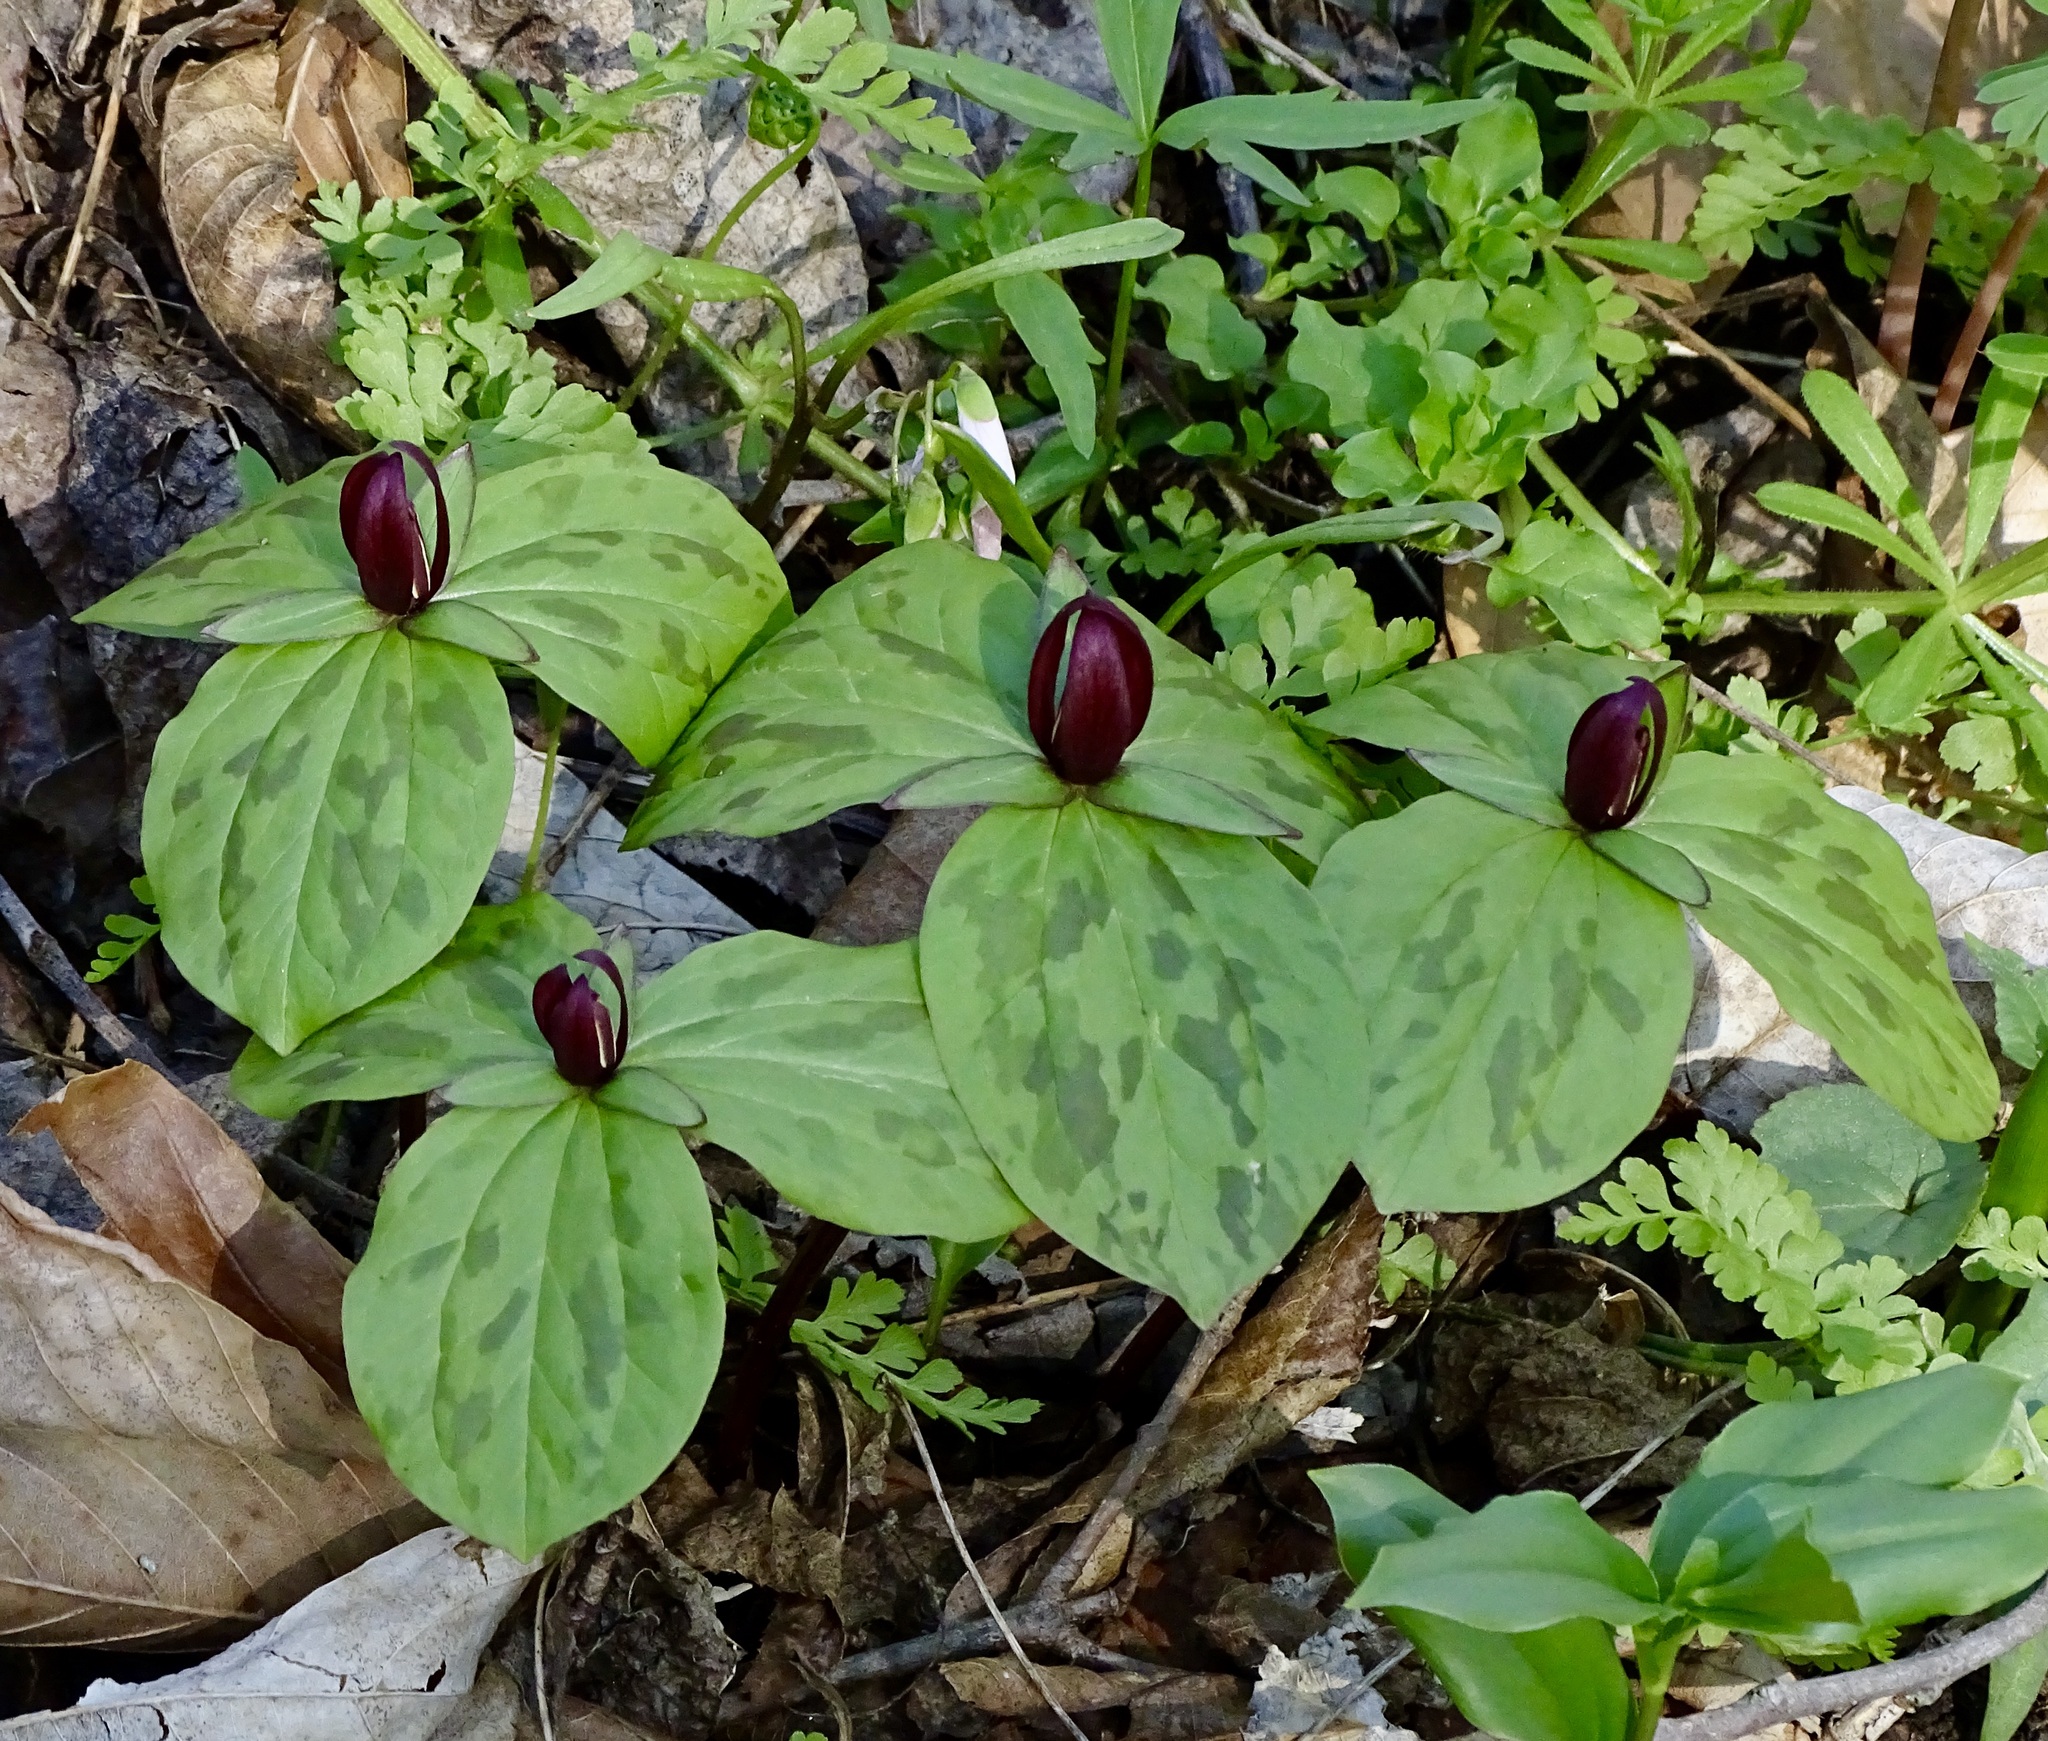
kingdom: Plantae
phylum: Tracheophyta
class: Liliopsida
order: Liliales
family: Melanthiaceae
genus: Trillium
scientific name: Trillium sessile
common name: Sessile trillium
